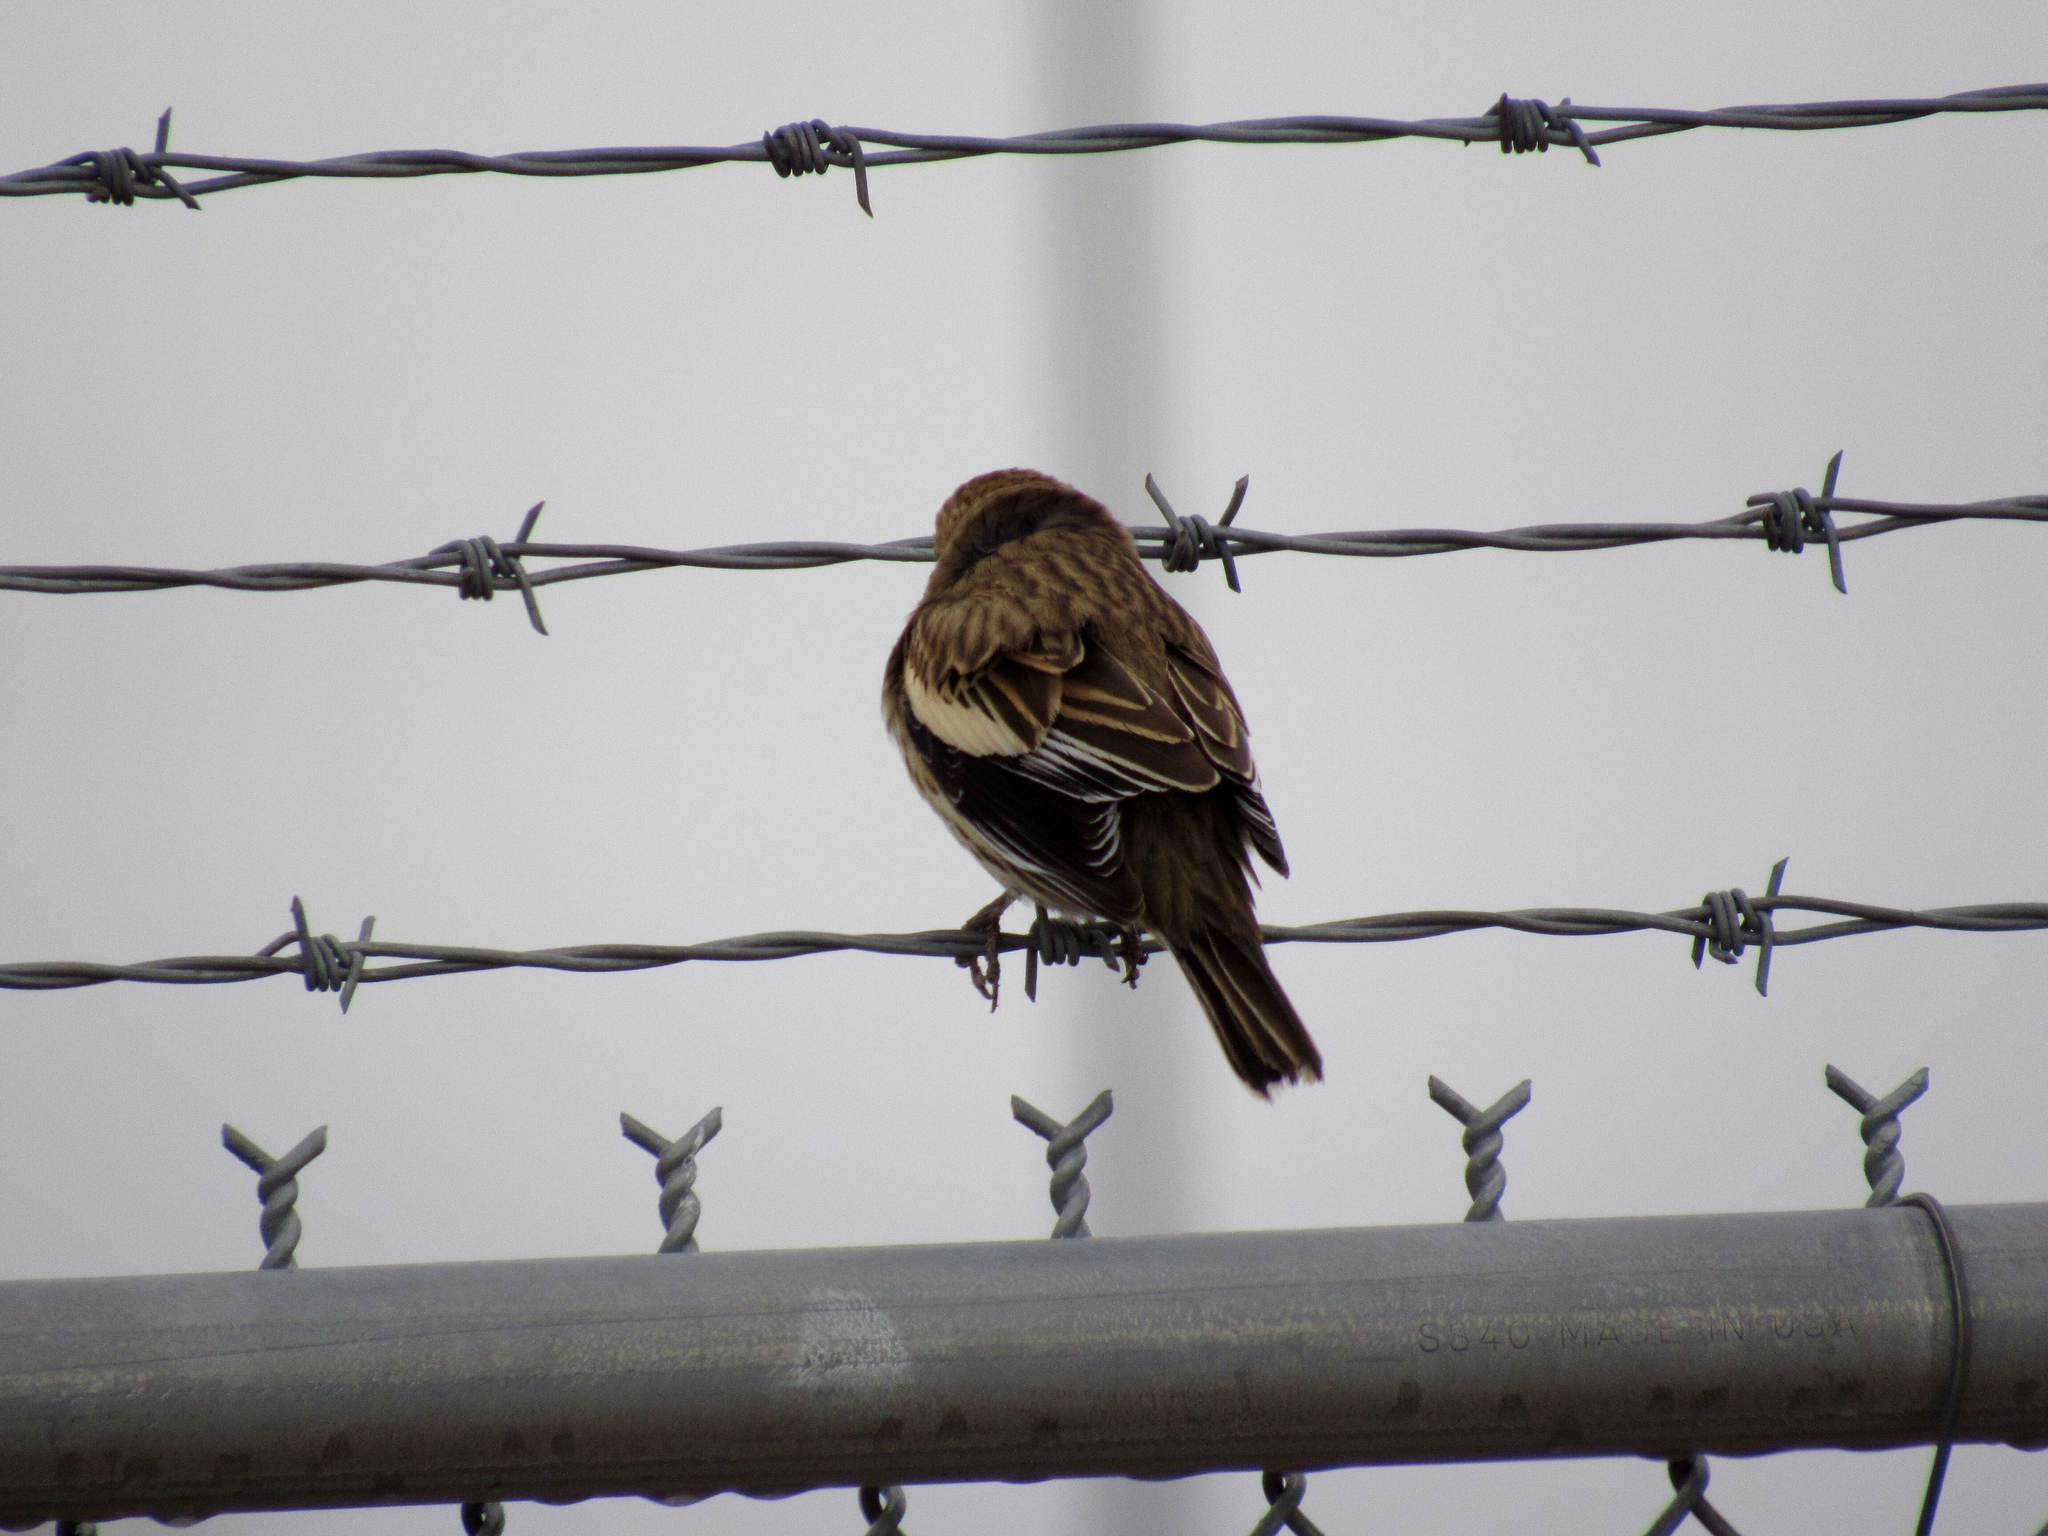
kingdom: Animalia
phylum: Chordata
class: Aves
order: Passeriformes
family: Passerellidae
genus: Calamospiza
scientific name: Calamospiza melanocorys
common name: Lark bunting
